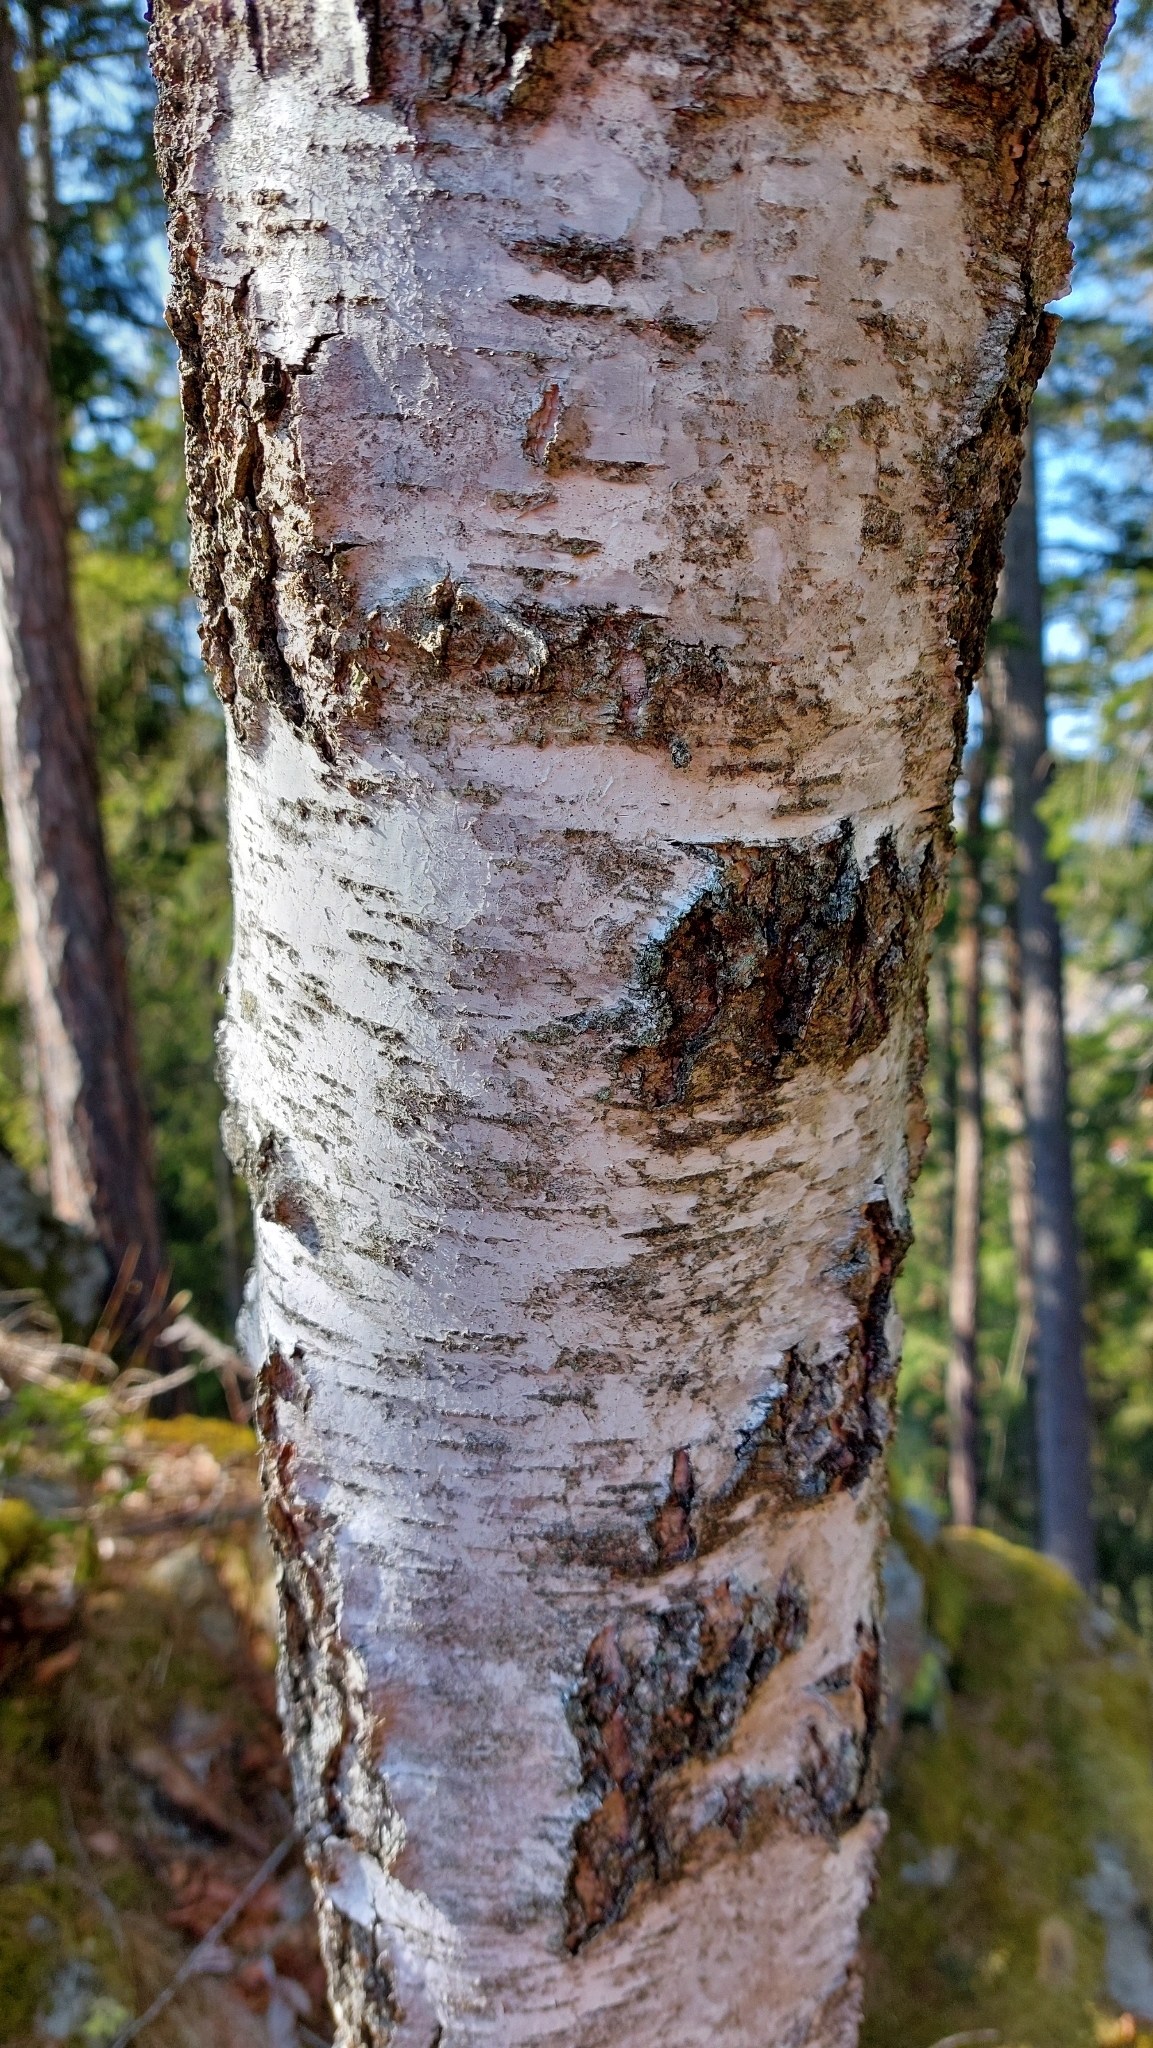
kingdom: Plantae
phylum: Tracheophyta
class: Magnoliopsida
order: Fagales
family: Betulaceae
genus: Betula
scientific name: Betula pendula
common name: Silver birch
